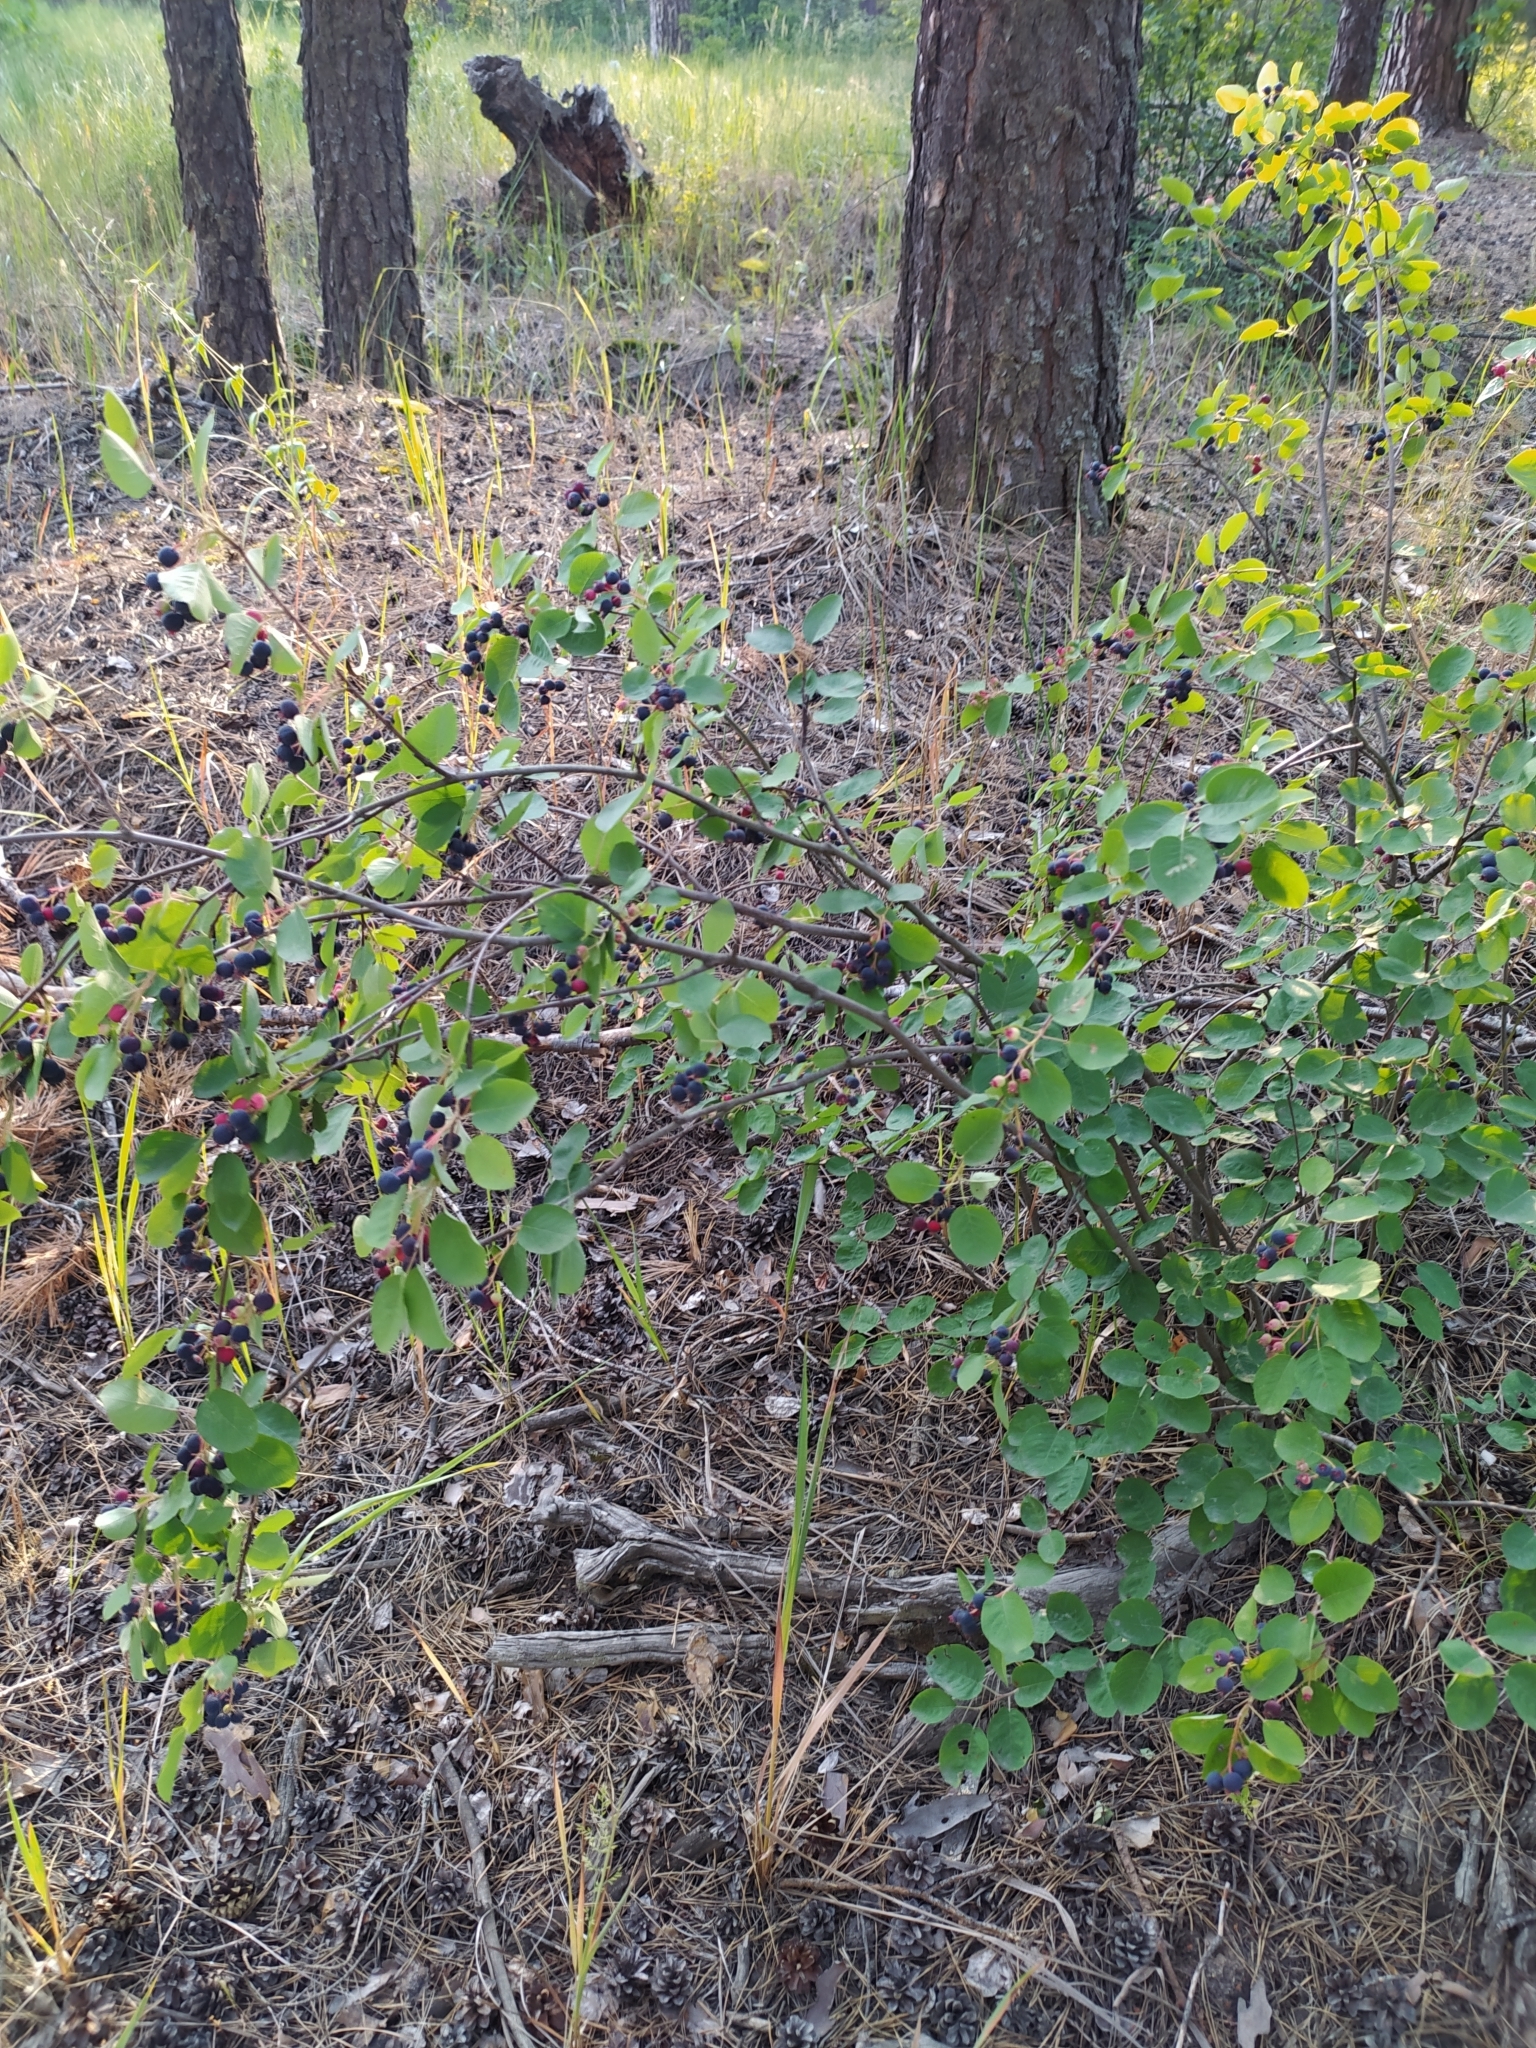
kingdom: Plantae
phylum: Tracheophyta
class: Magnoliopsida
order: Rosales
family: Rosaceae
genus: Amelanchier
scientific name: Amelanchier
